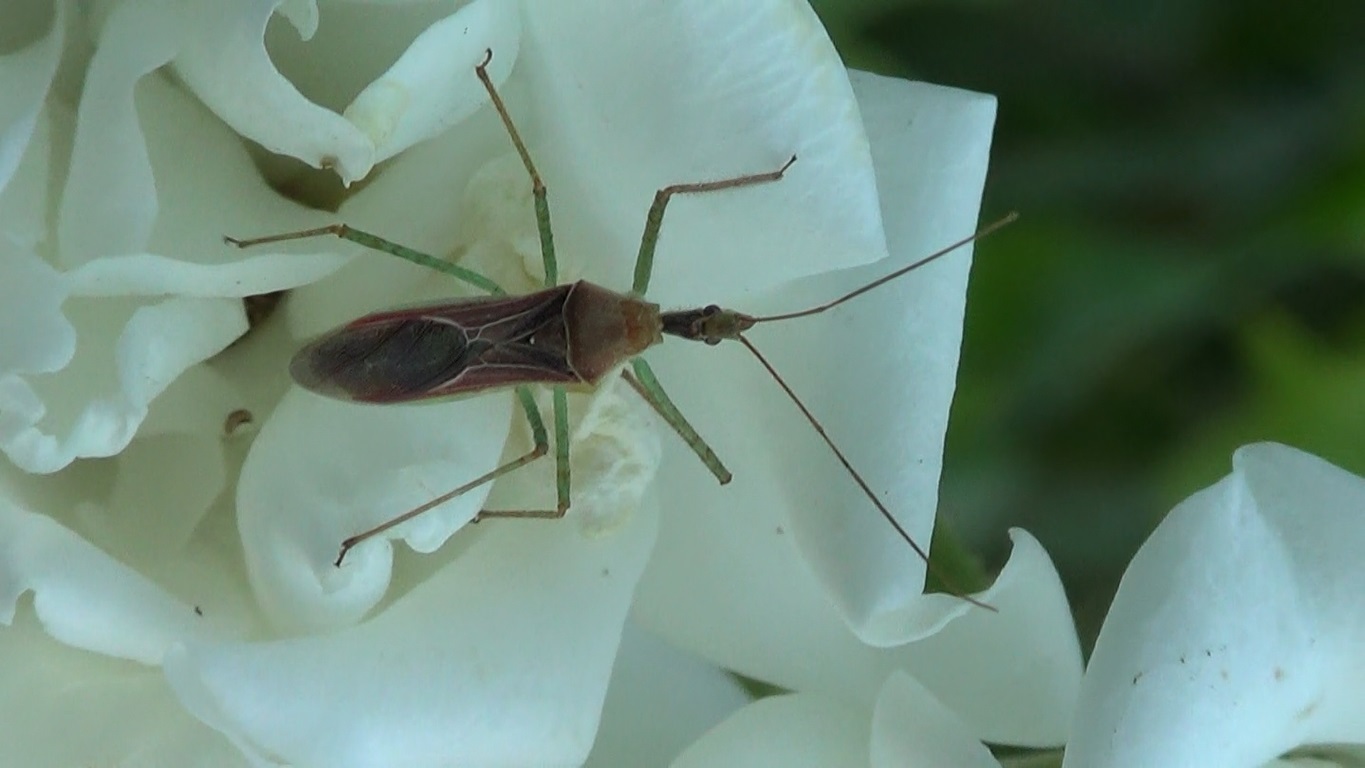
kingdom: Animalia
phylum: Arthropoda
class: Insecta
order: Hemiptera
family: Reduviidae
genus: Zelus
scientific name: Zelus renardii
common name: Assassin bug
